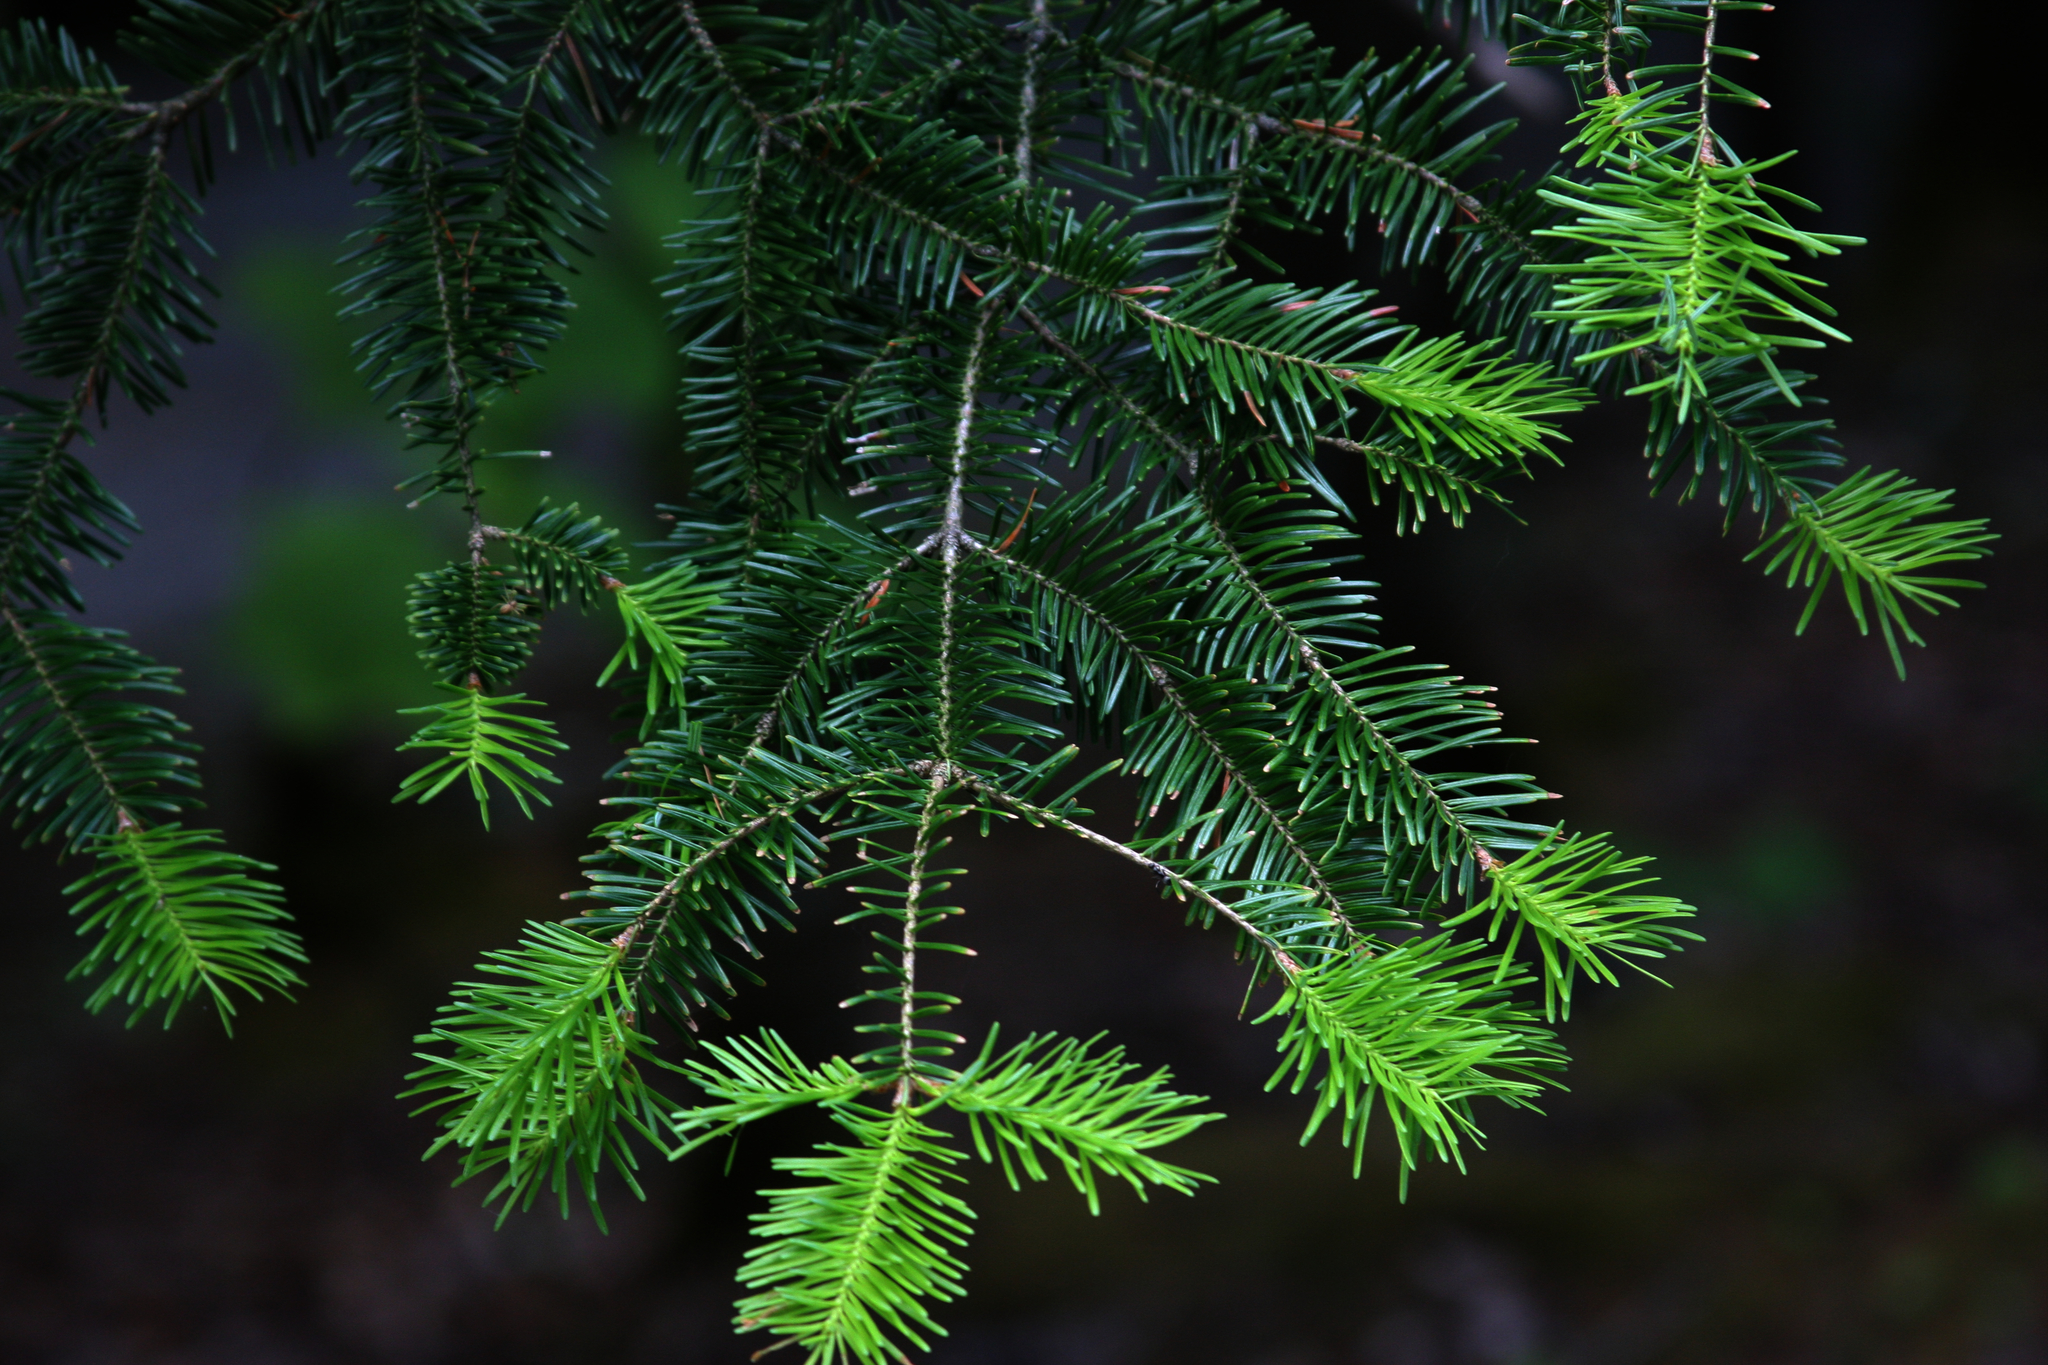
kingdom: Plantae
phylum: Tracheophyta
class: Pinopsida
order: Pinales
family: Pinaceae
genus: Abies
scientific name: Abies balsamea
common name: Balsam fir
